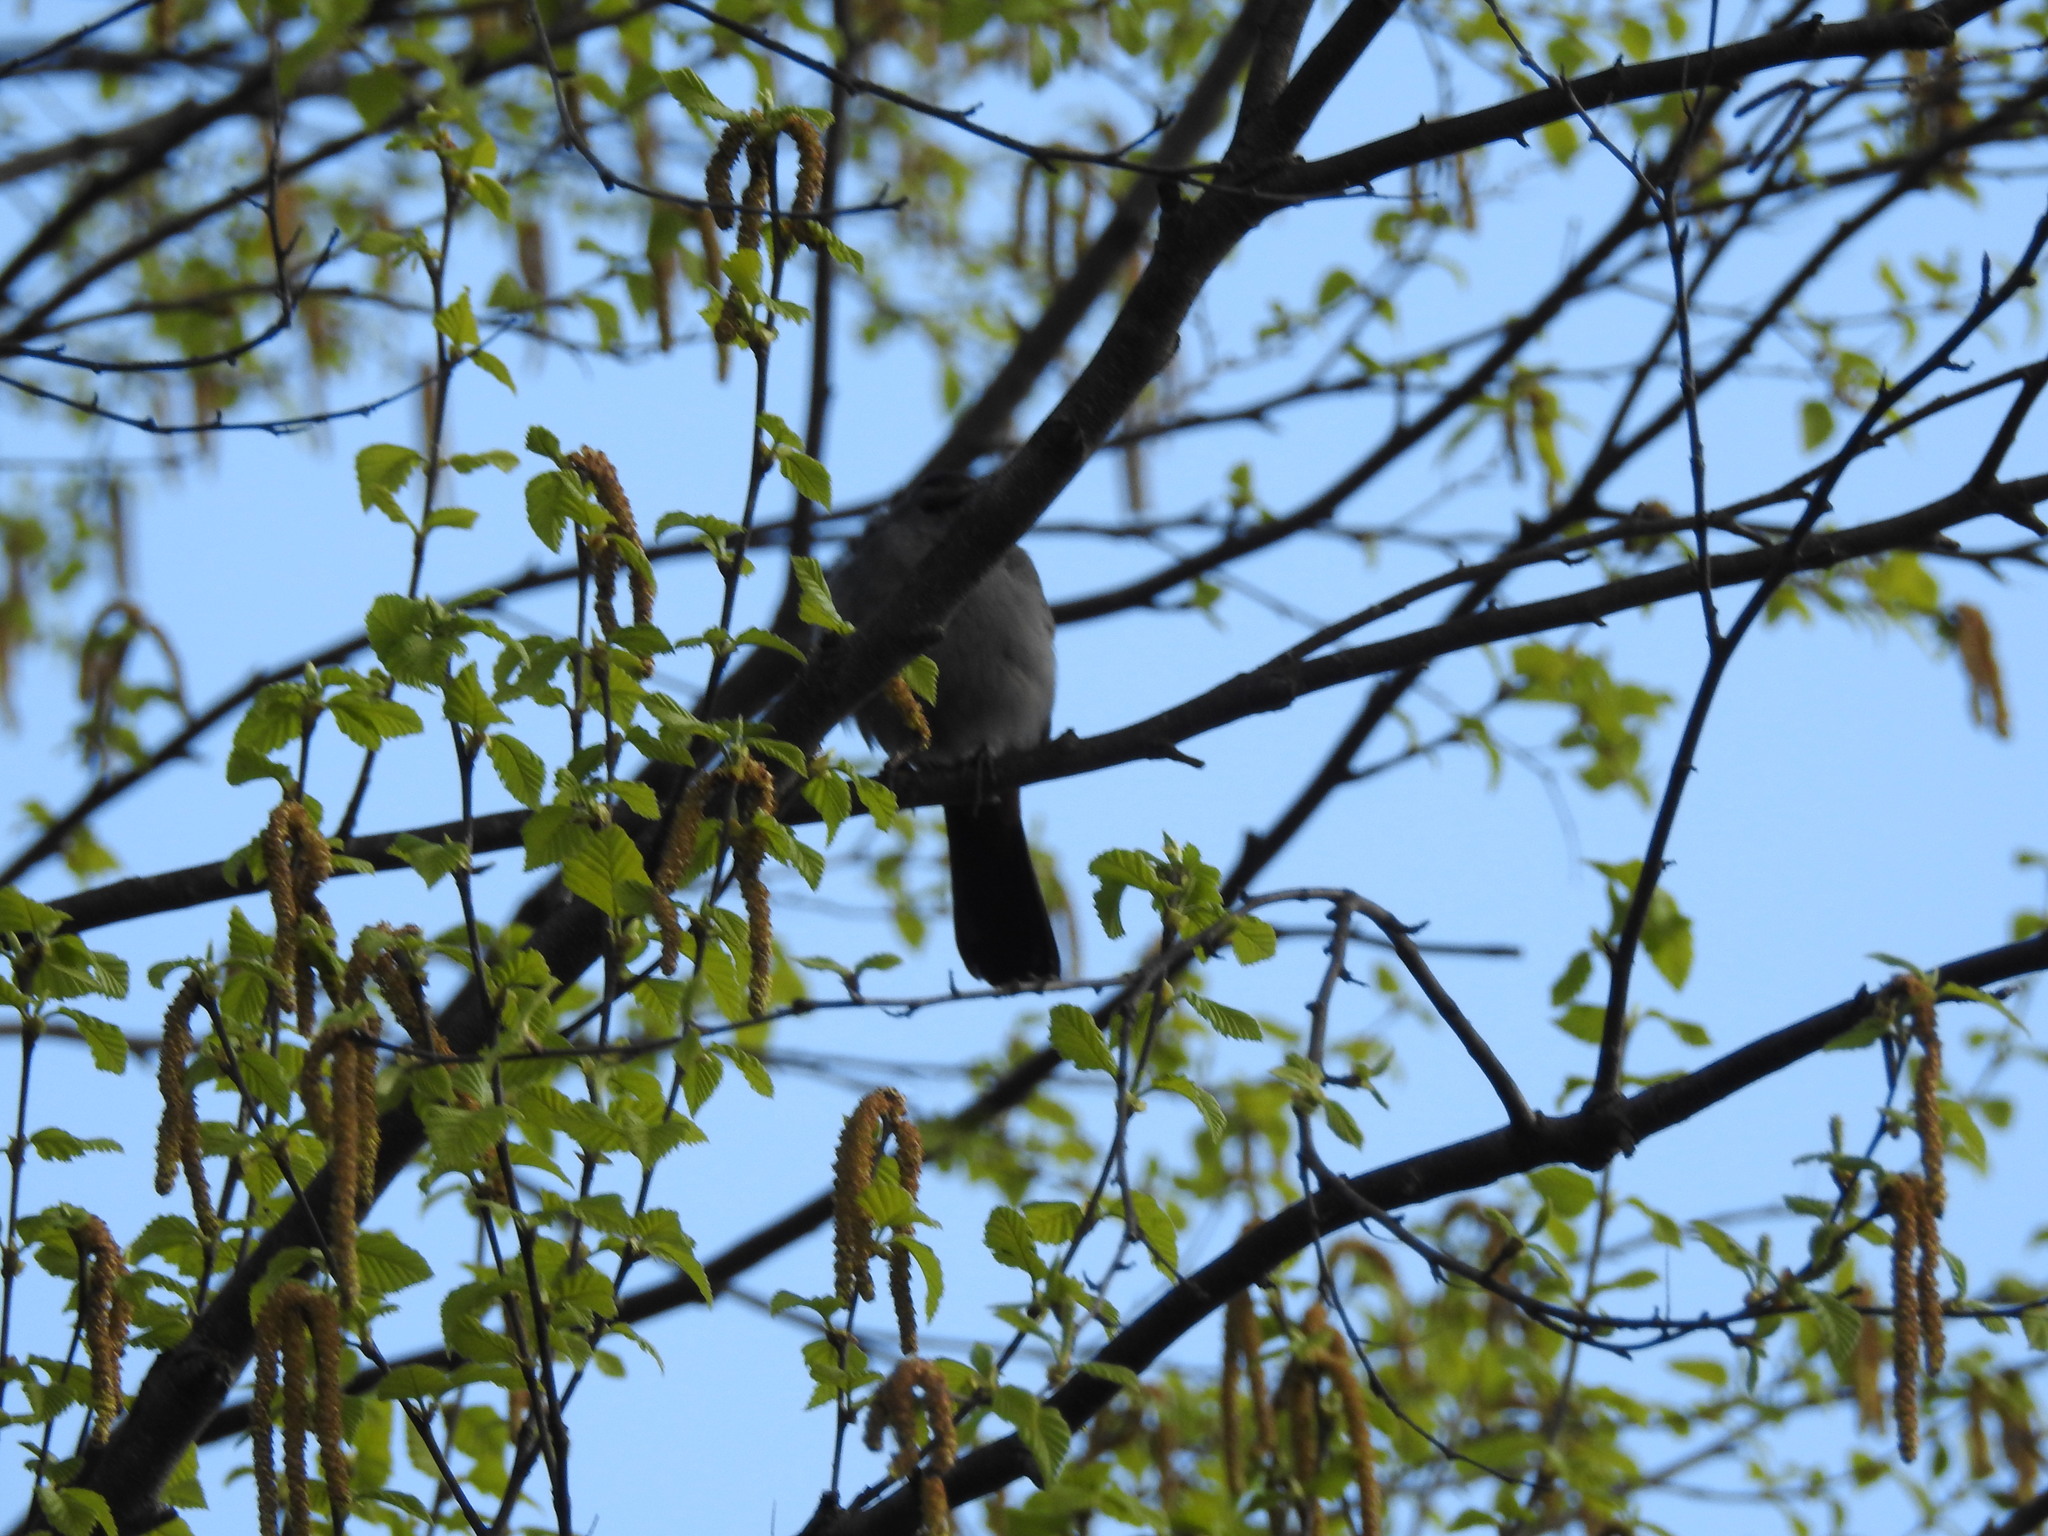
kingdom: Animalia
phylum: Chordata
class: Aves
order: Passeriformes
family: Mimidae
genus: Dumetella
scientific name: Dumetella carolinensis
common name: Gray catbird
